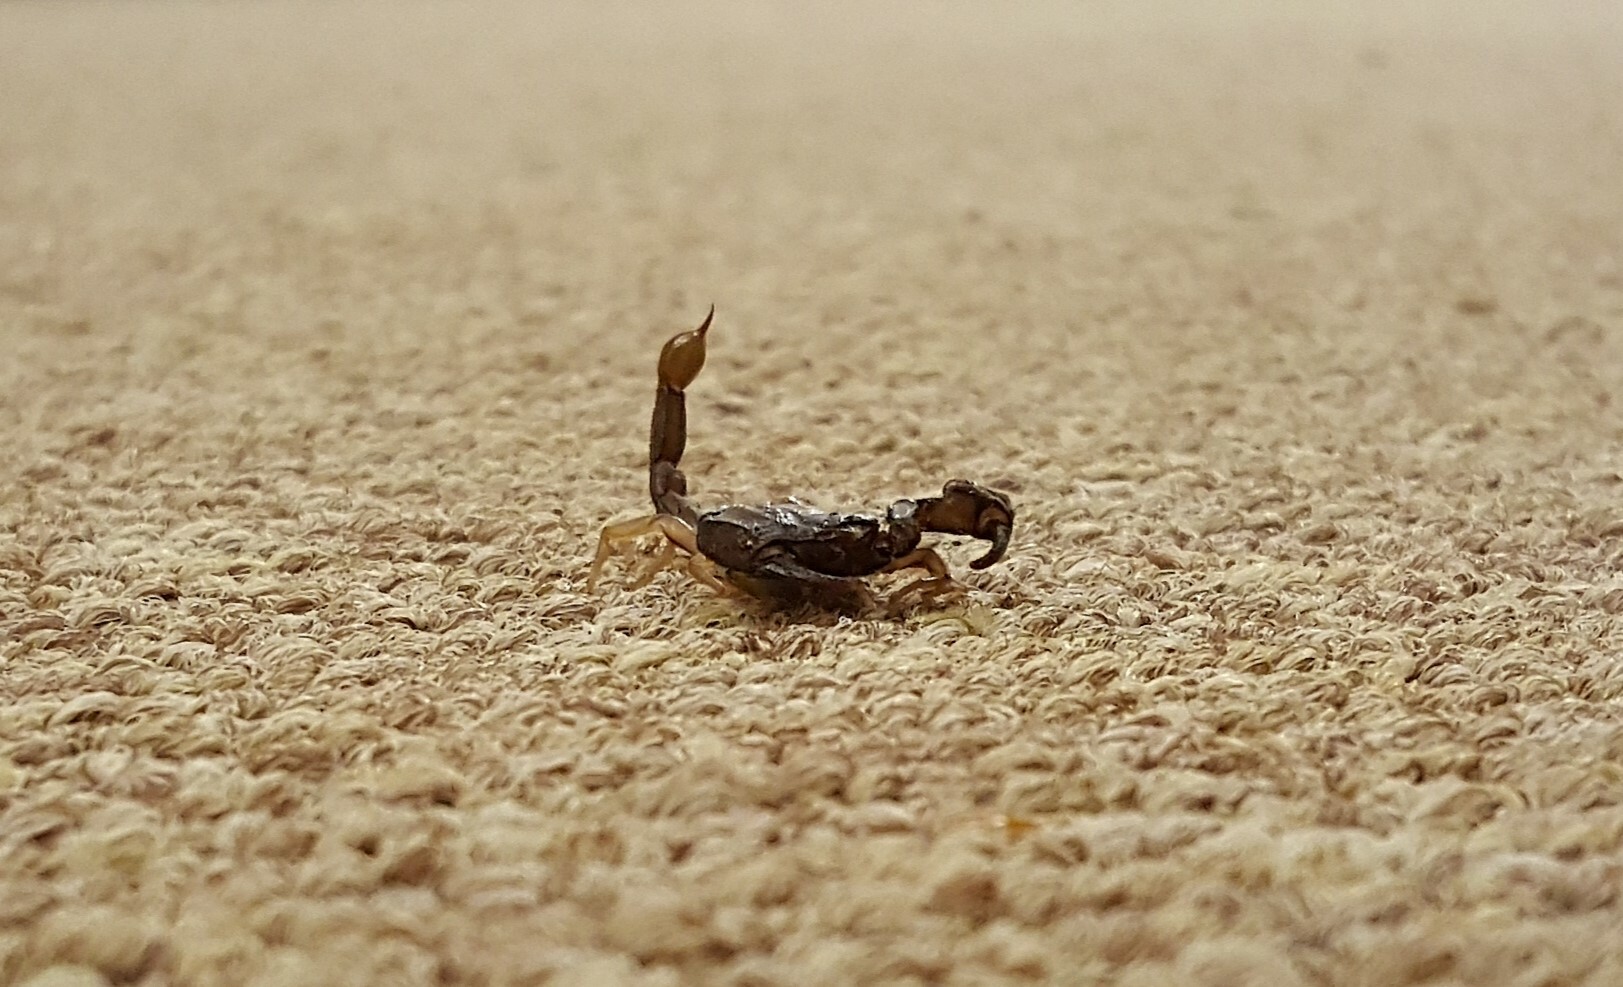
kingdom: Animalia
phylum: Arthropoda
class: Arachnida
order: Scorpiones
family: Chactidae
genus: Uroctonus
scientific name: Uroctonus mordax
